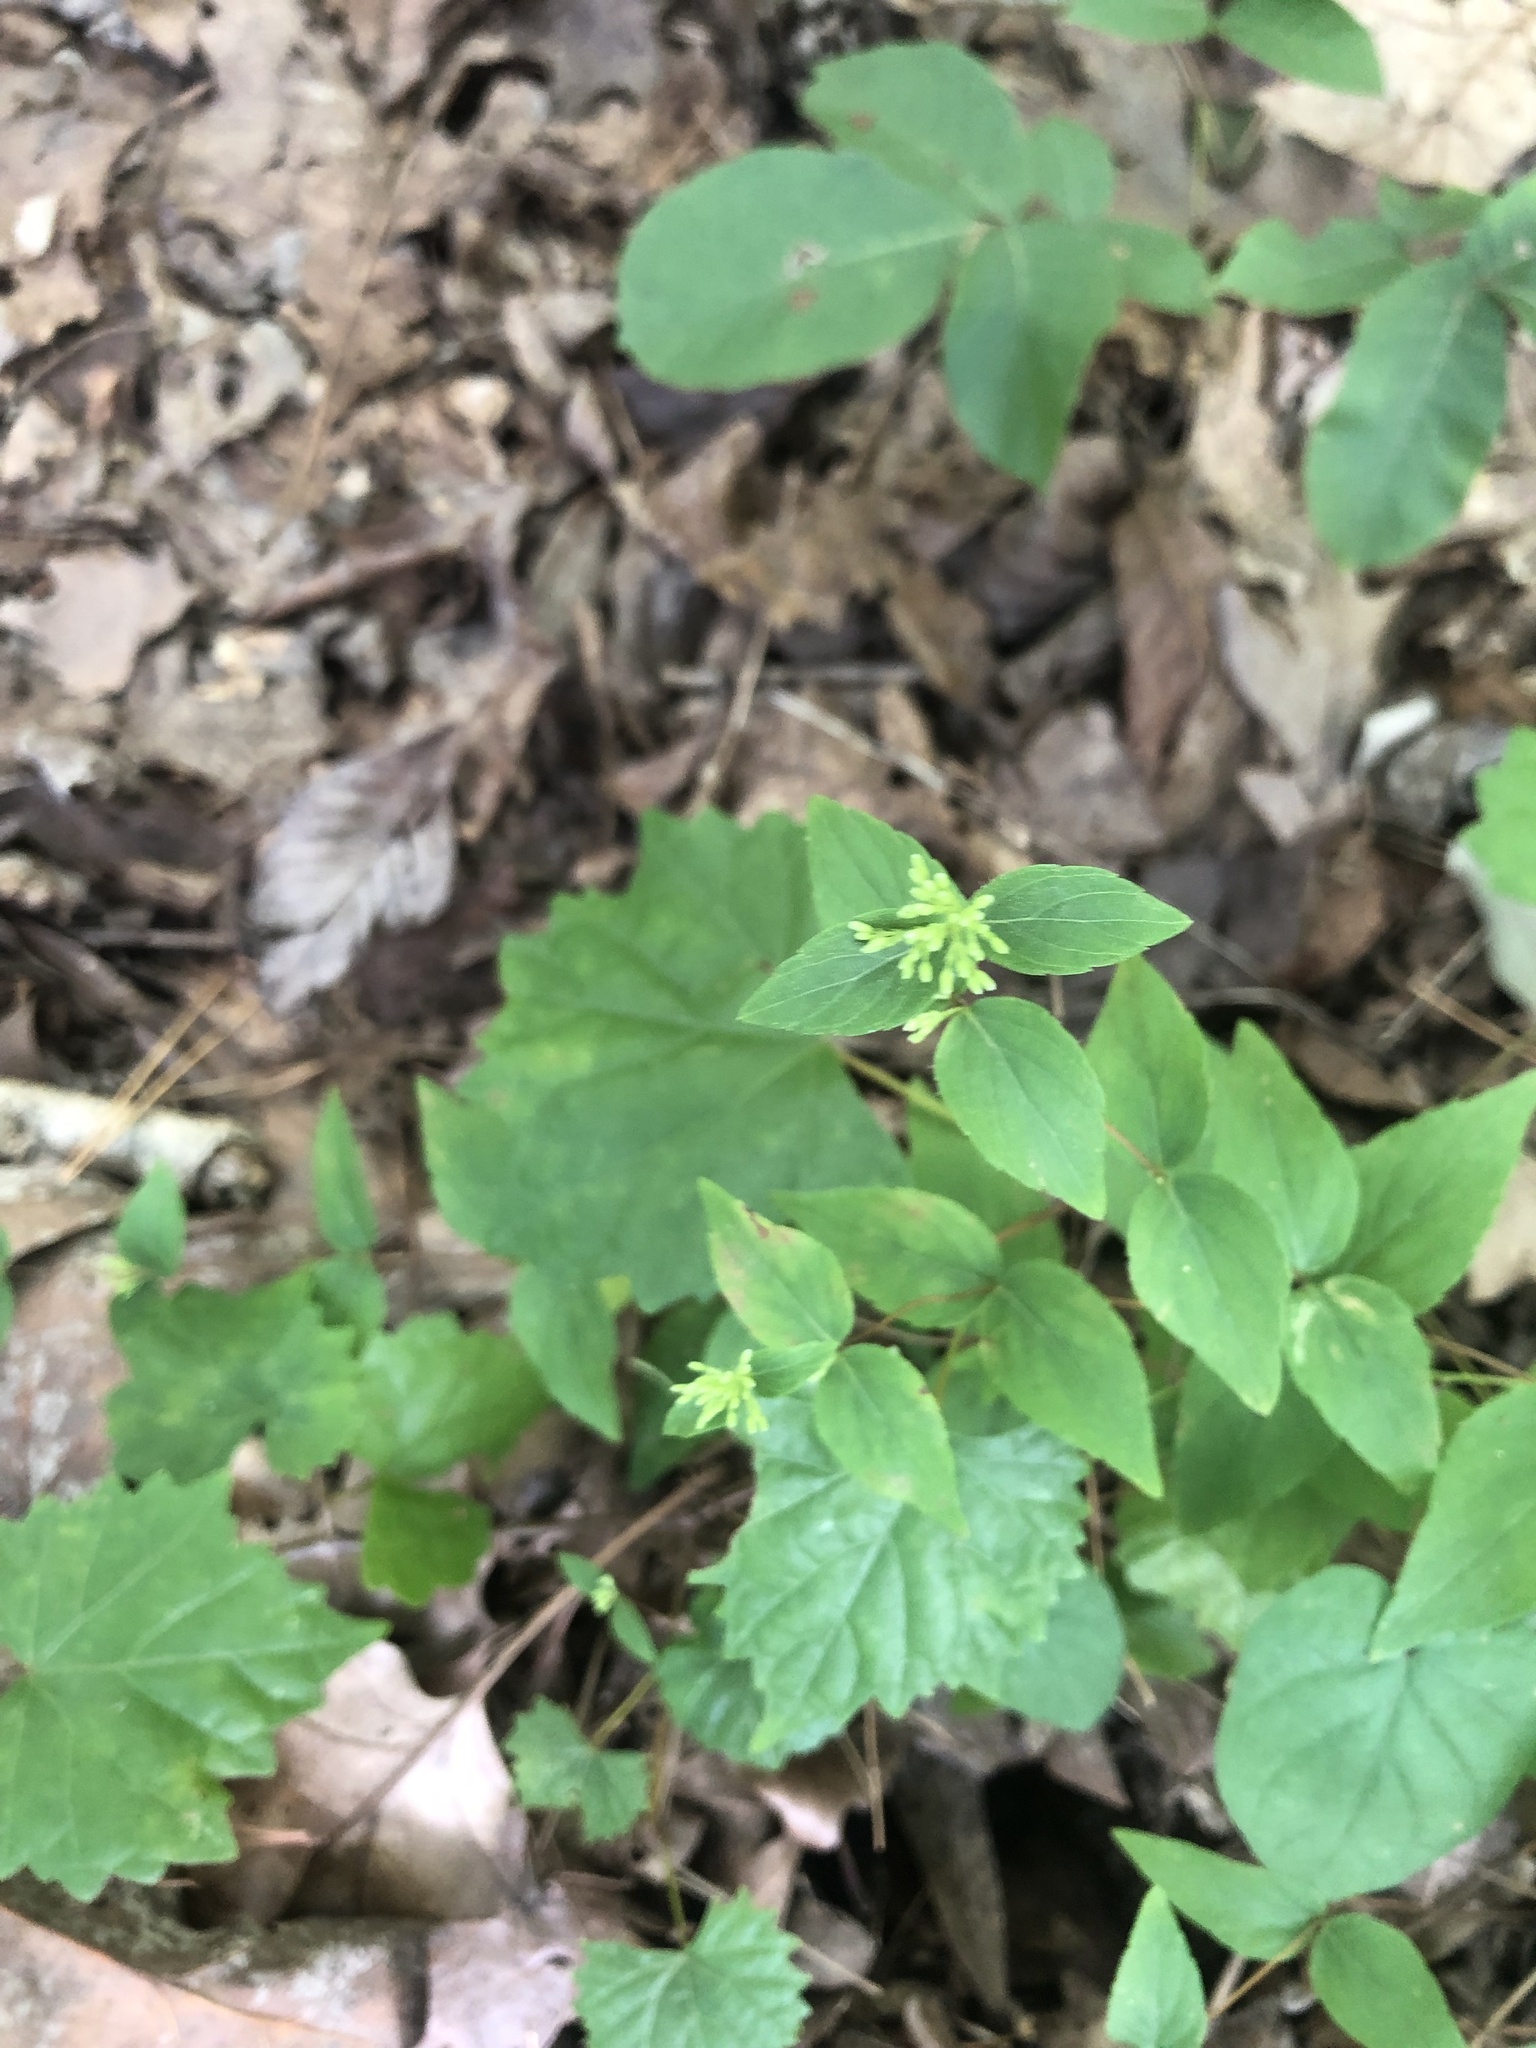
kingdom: Plantae
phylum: Tracheophyta
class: Magnoliopsida
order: Lamiales
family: Lamiaceae
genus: Cunila
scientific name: Cunila origanoides
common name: American dittany
